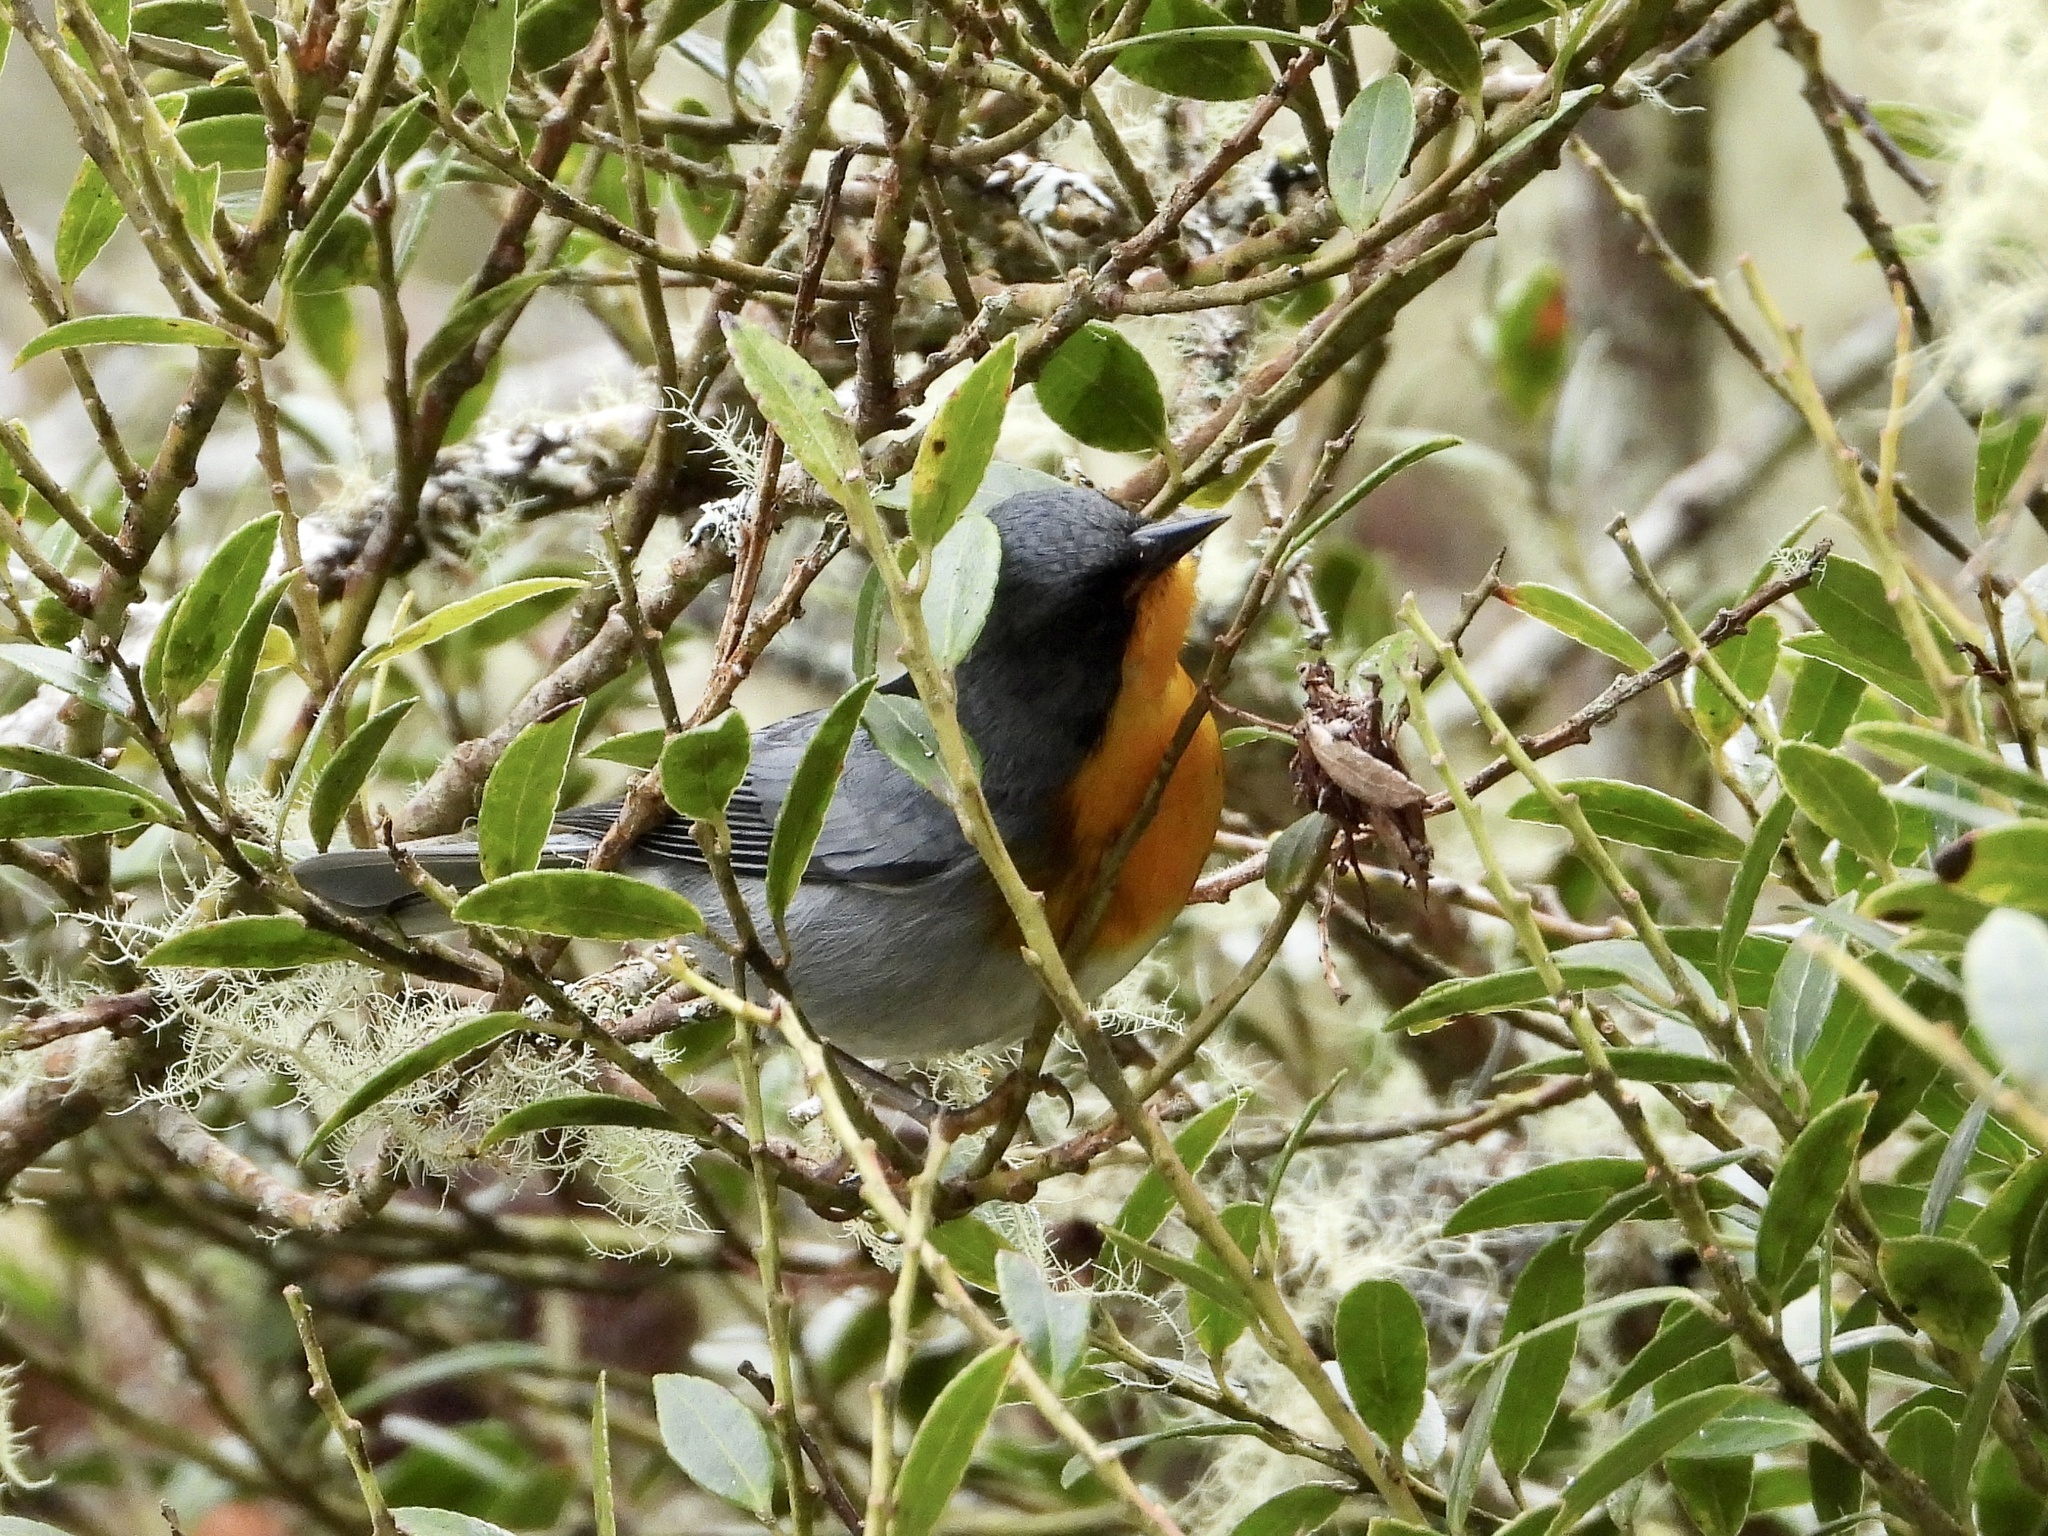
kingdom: Animalia
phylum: Chordata
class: Aves
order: Passeriformes
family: Parulidae
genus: Oreothlypis
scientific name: Oreothlypis gutturalis
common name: Flame-throated warbler
